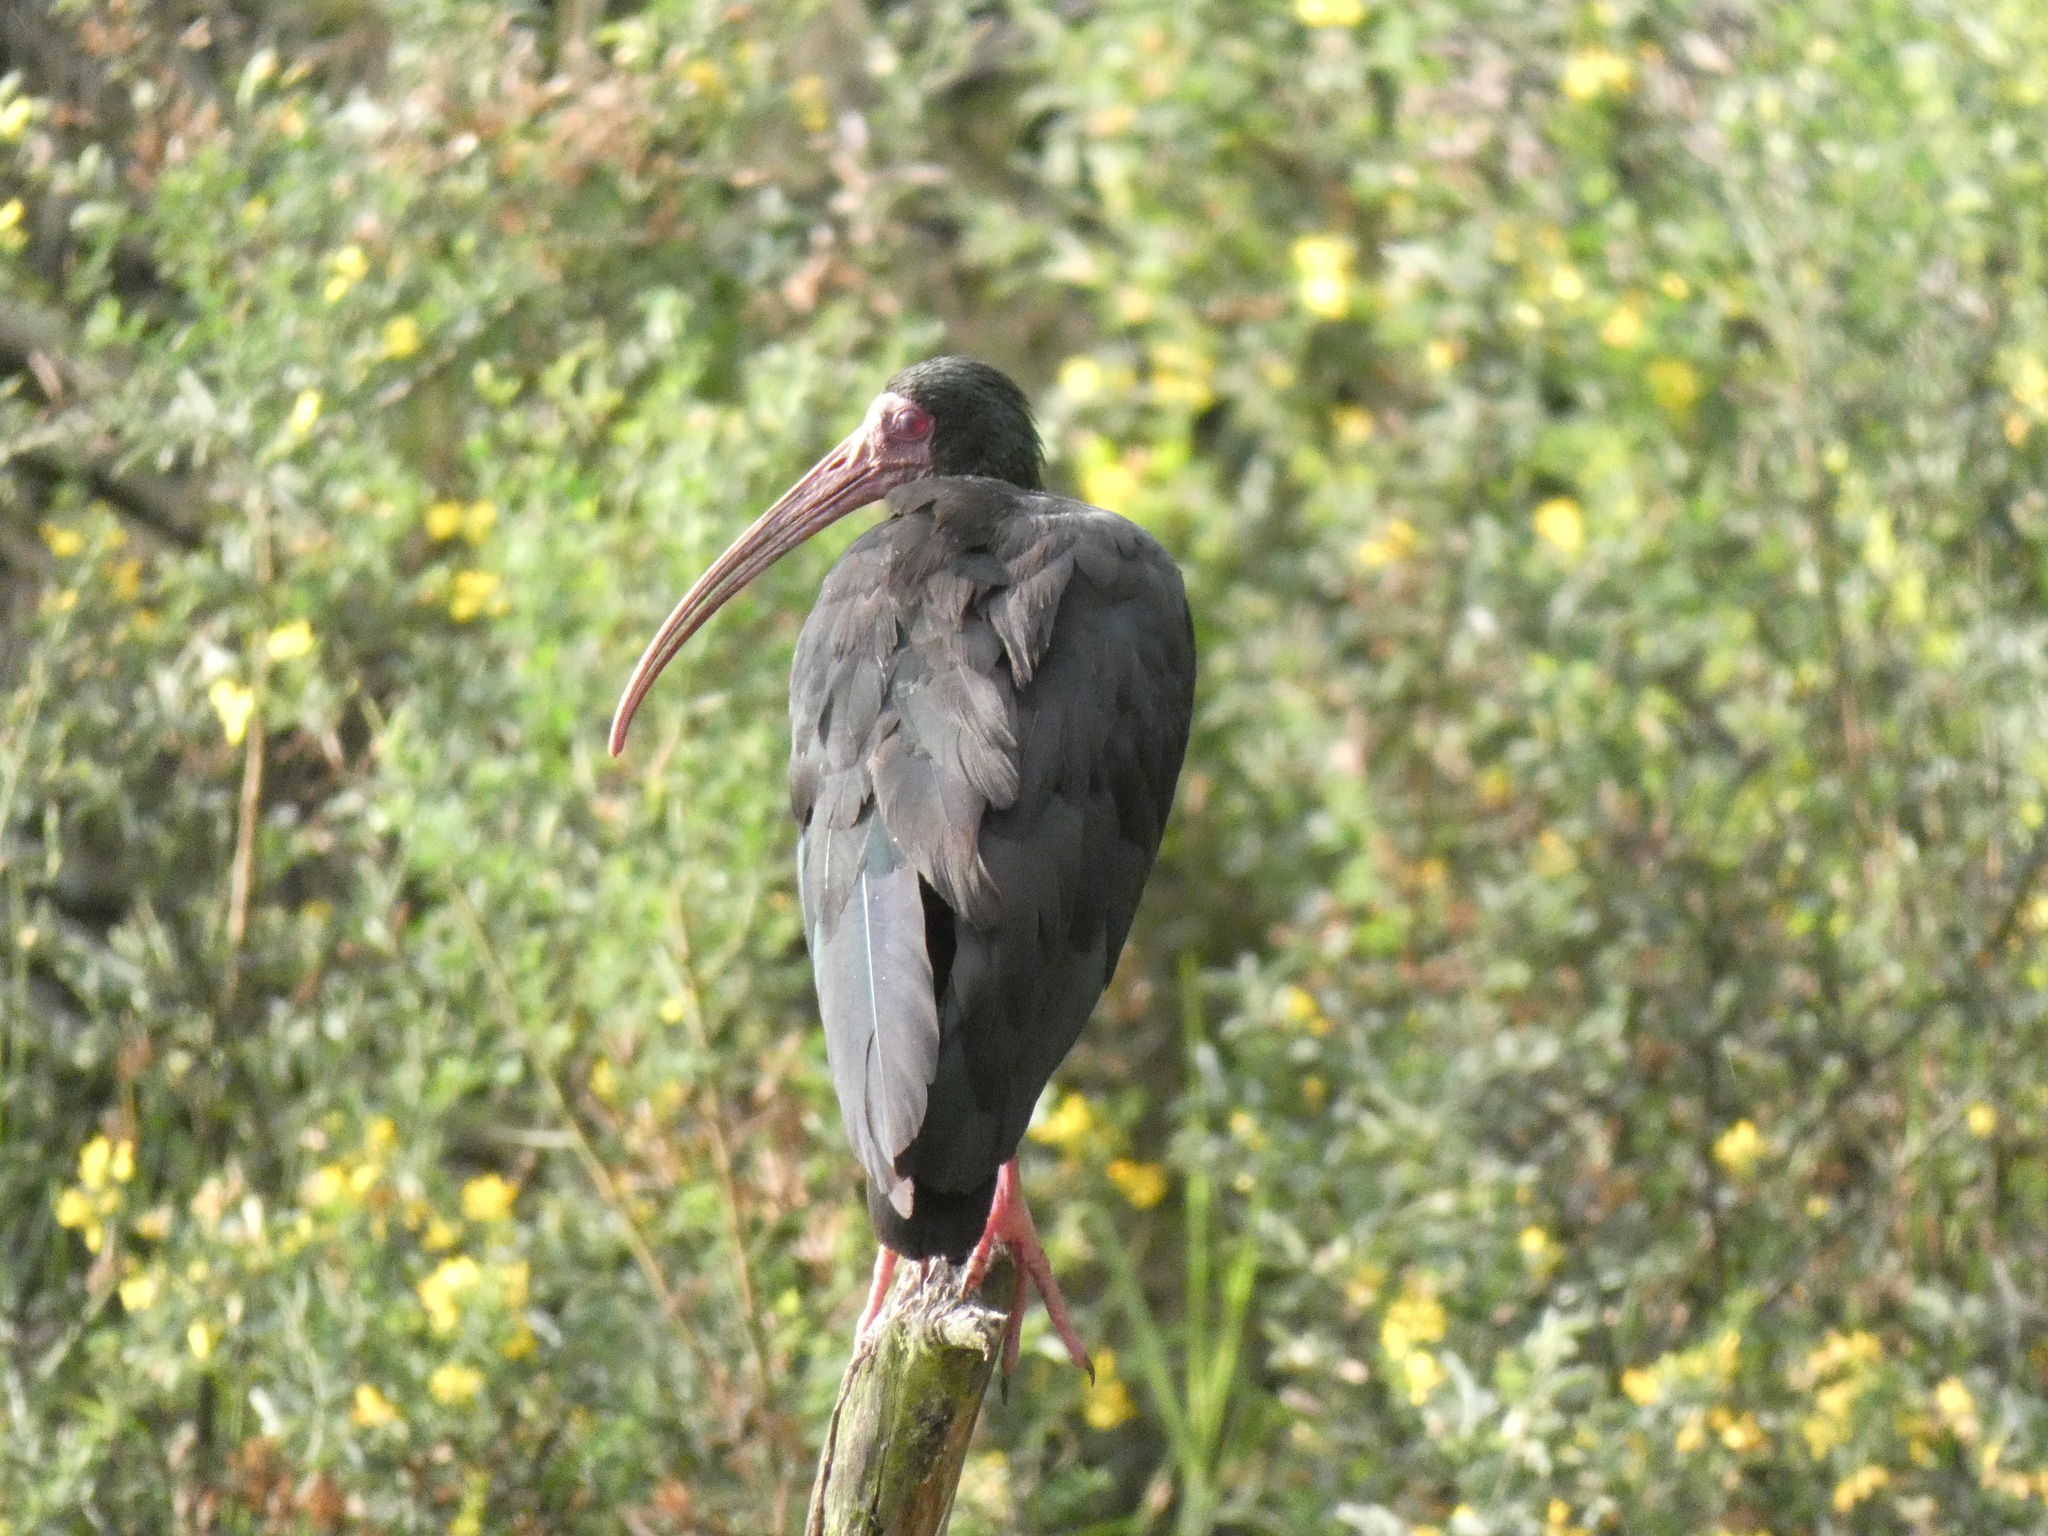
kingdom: Animalia
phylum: Chordata
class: Aves
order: Pelecaniformes
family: Threskiornithidae
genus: Phimosus
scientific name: Phimosus infuscatus
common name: Bare-faced ibis
